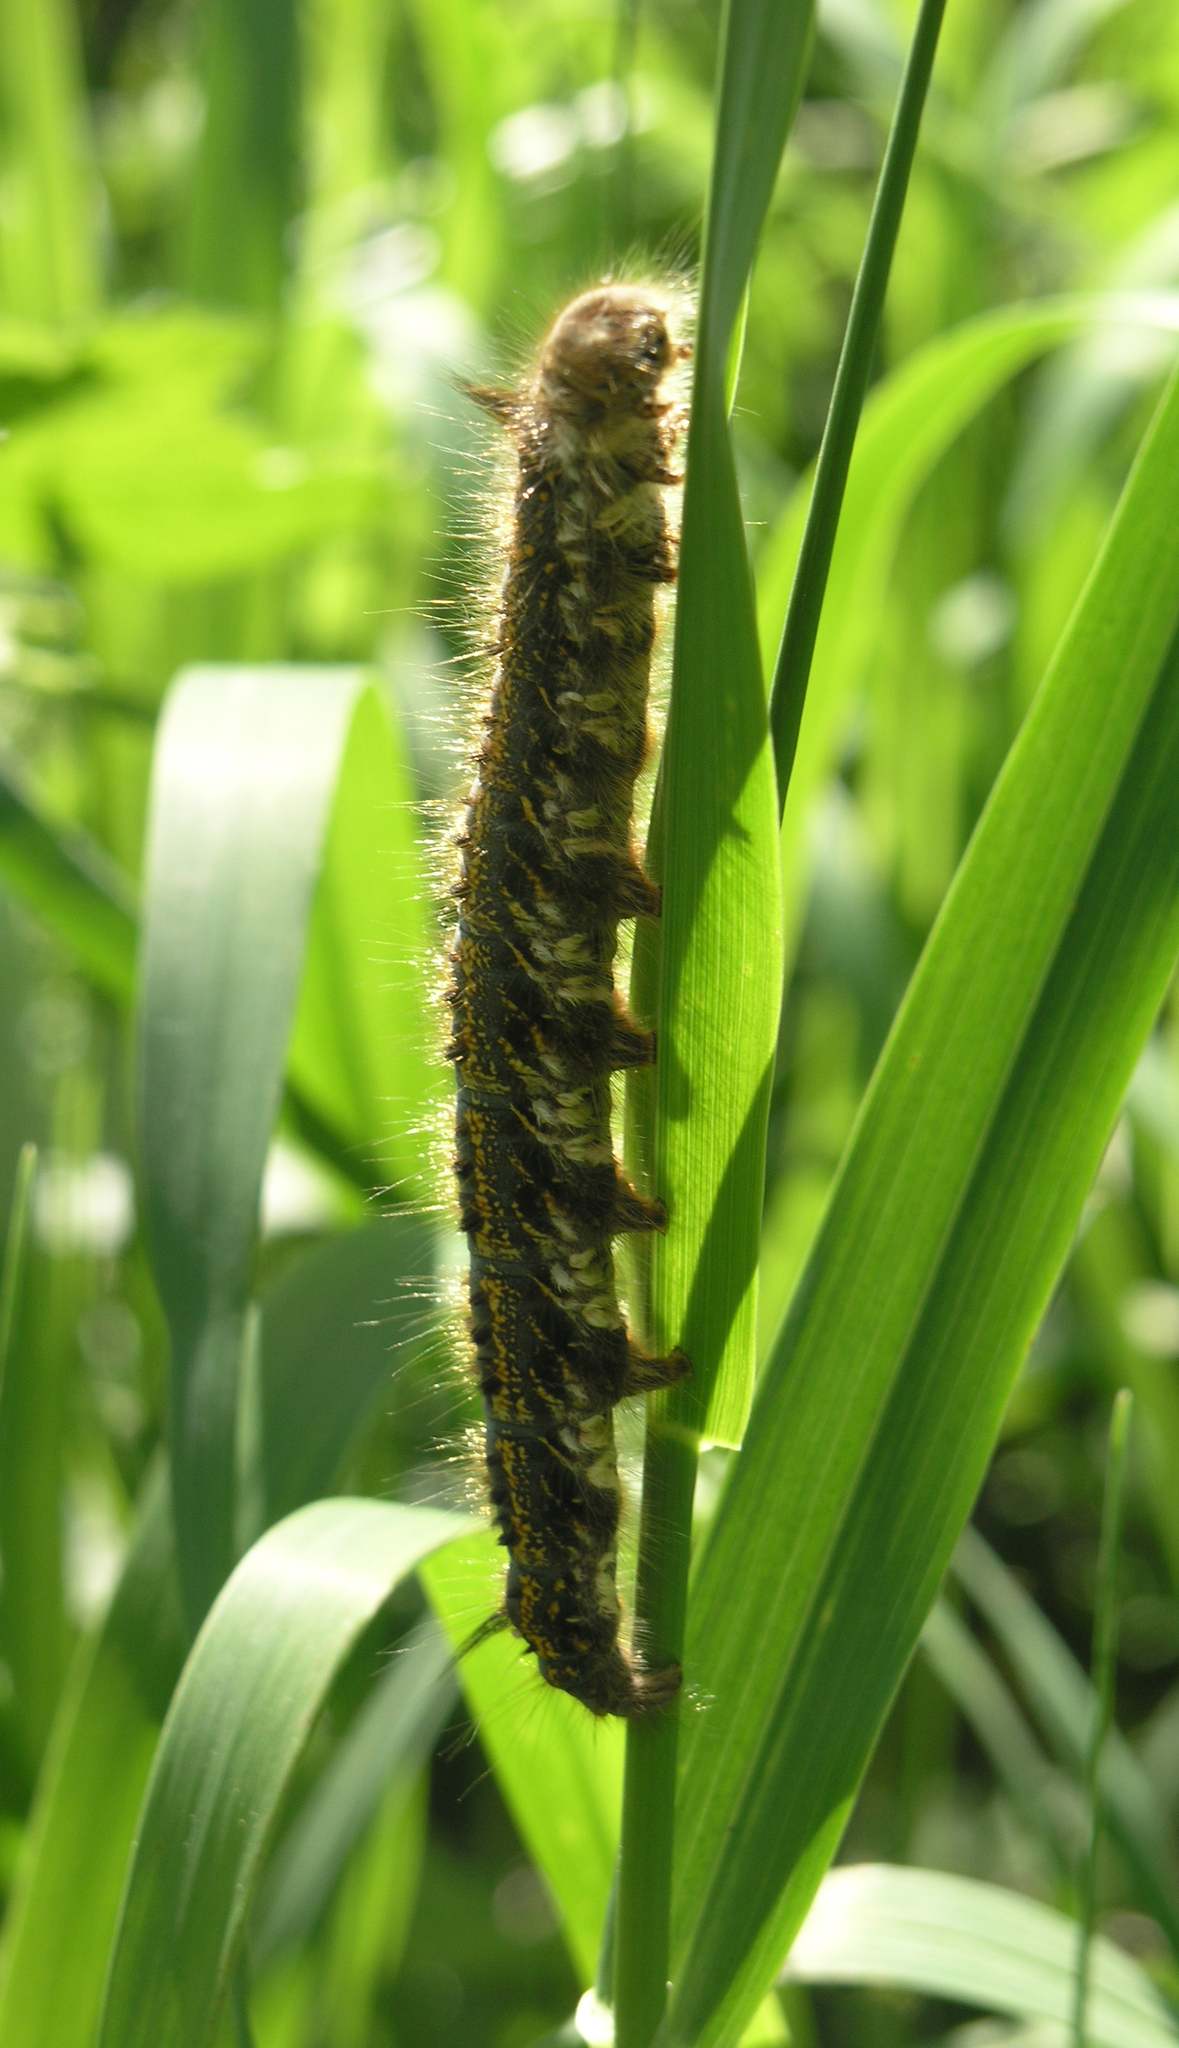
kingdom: Animalia
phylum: Arthropoda
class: Insecta
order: Lepidoptera
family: Lasiocampidae
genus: Euthrix
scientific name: Euthrix potatoria
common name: Drinker
